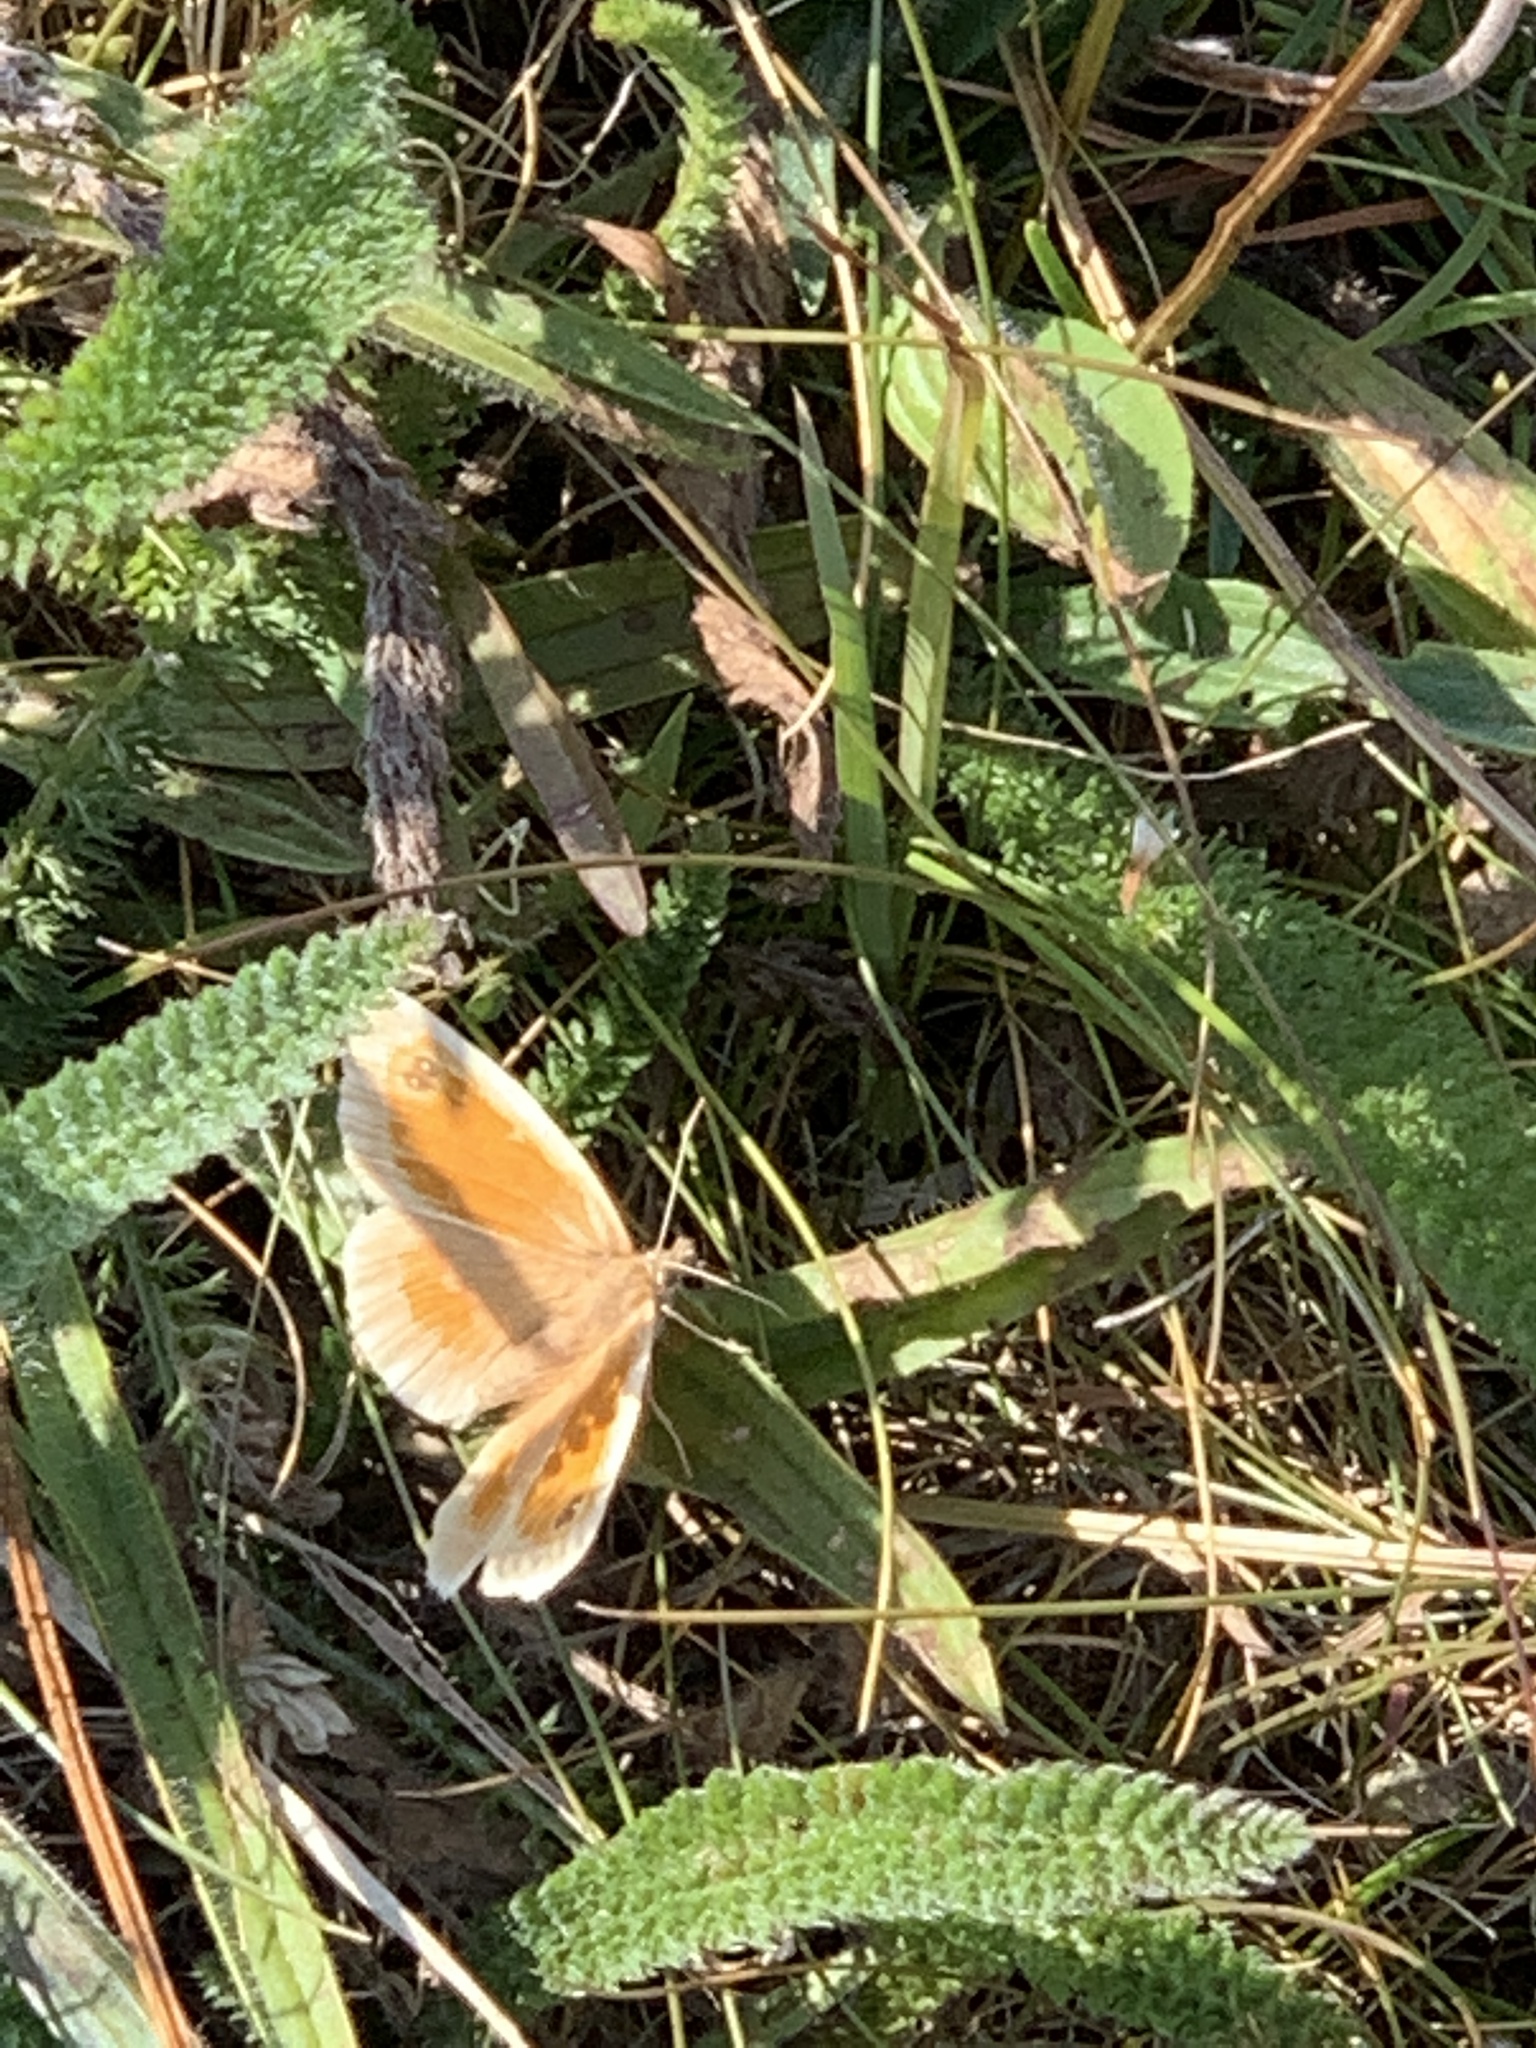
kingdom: Animalia
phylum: Arthropoda
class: Insecta
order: Lepidoptera
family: Satyridae
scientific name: Satyridae
